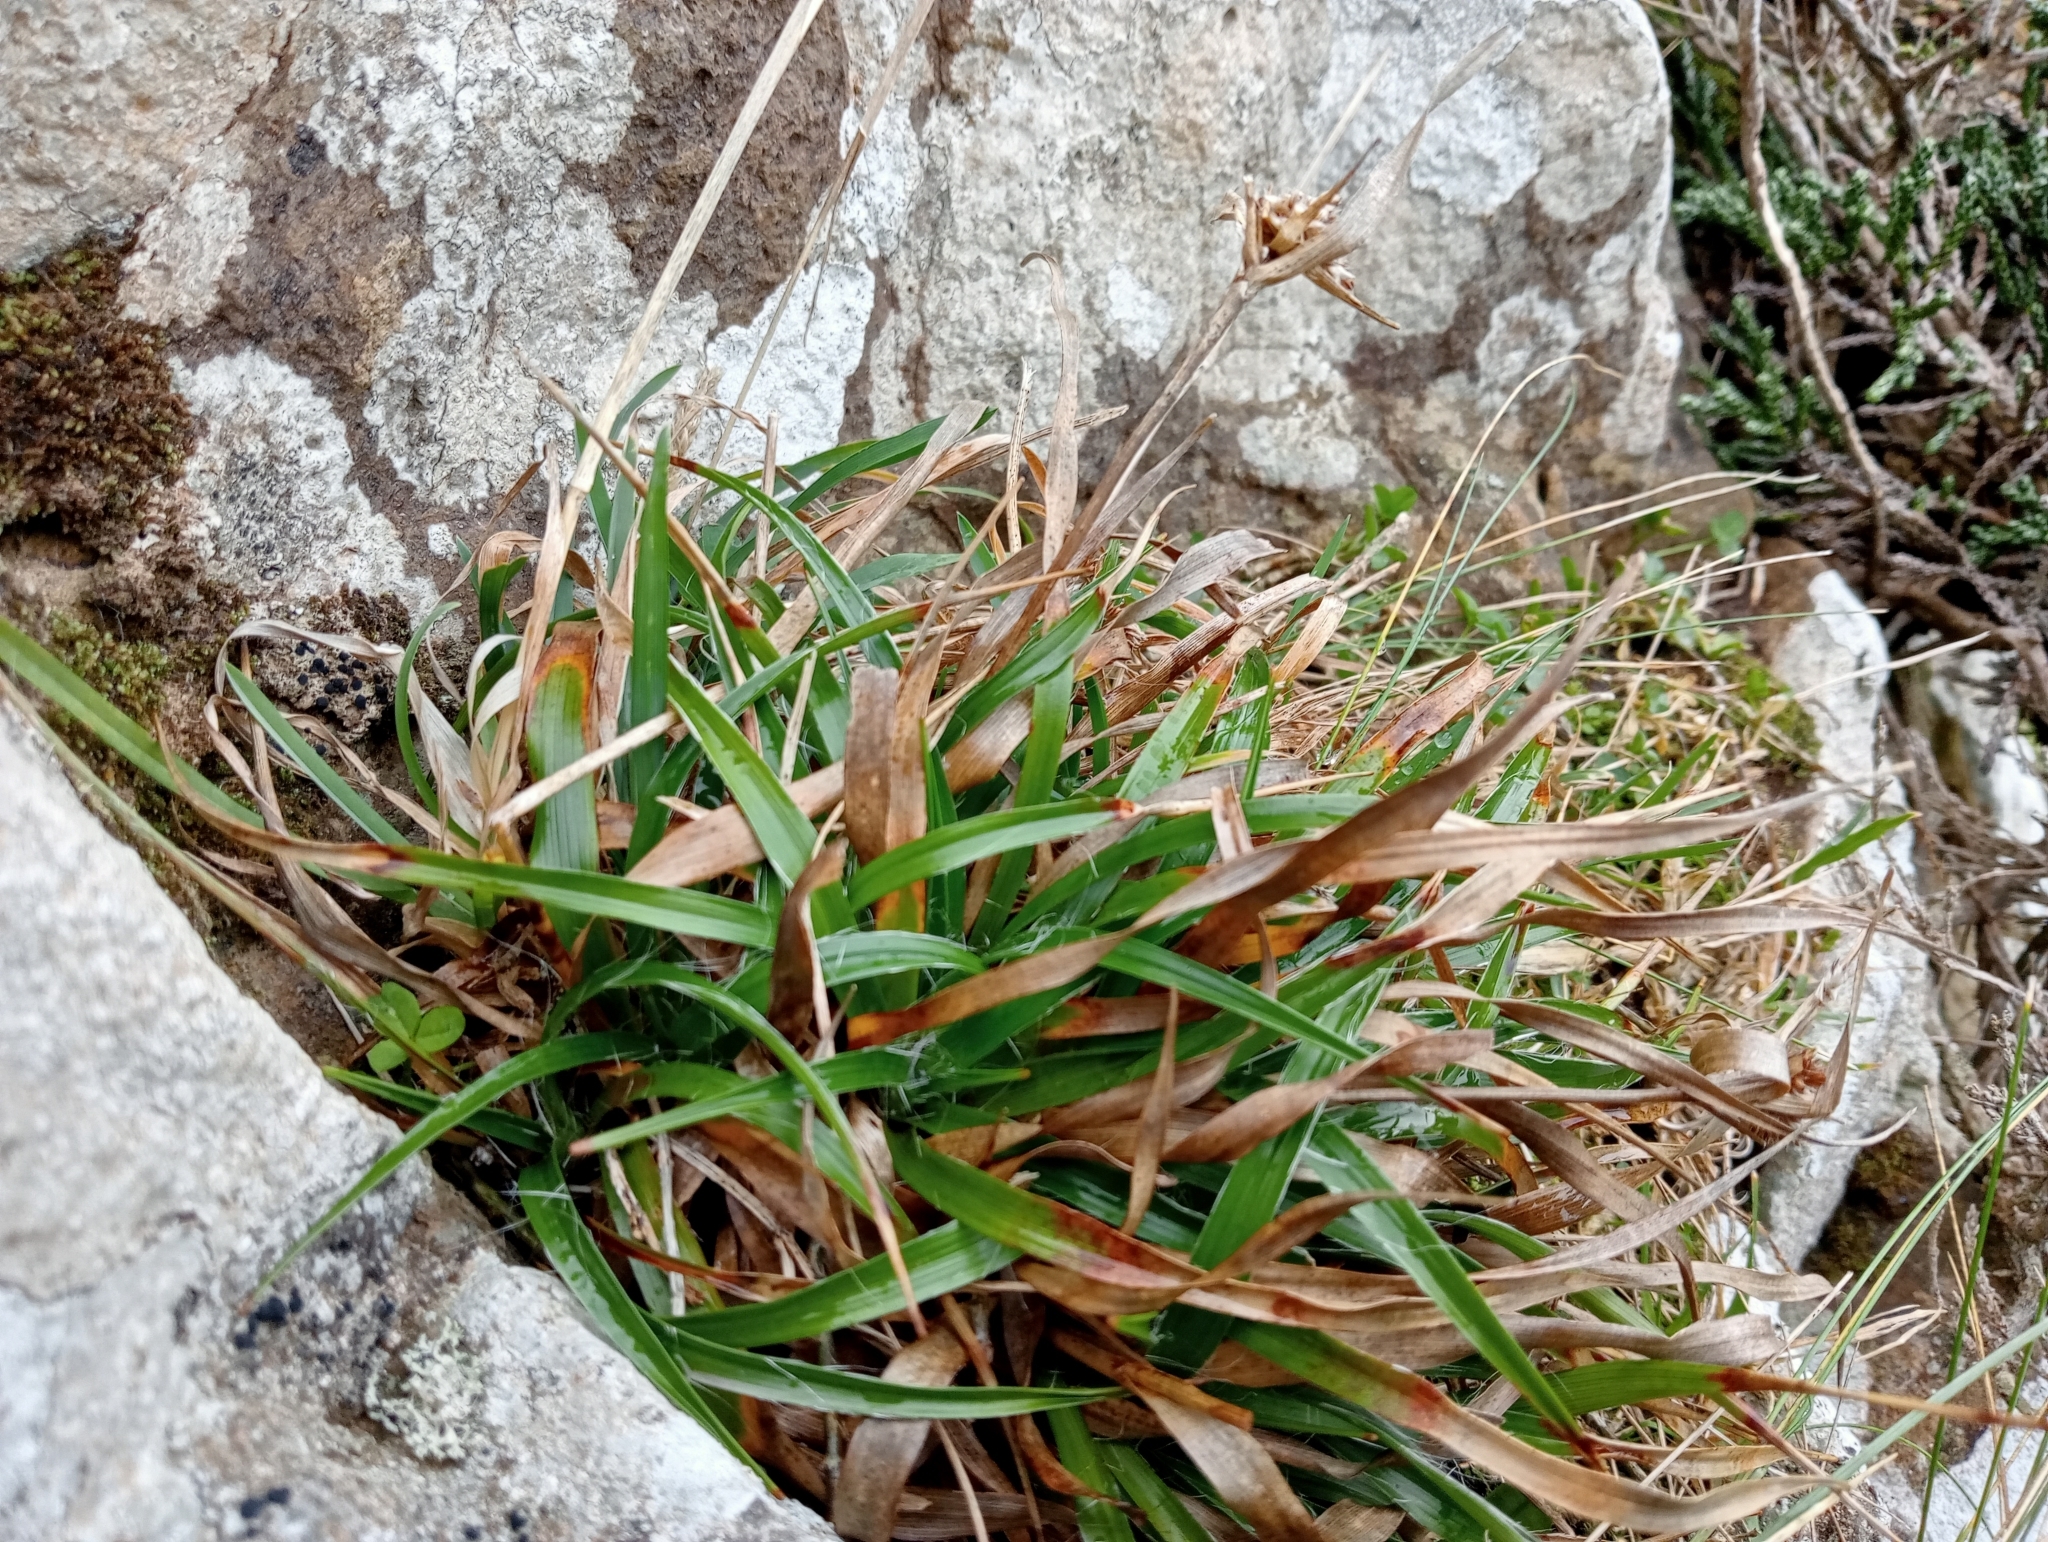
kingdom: Plantae
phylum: Tracheophyta
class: Liliopsida
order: Poales
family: Juncaceae
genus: Luzula
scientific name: Luzula banksiana
